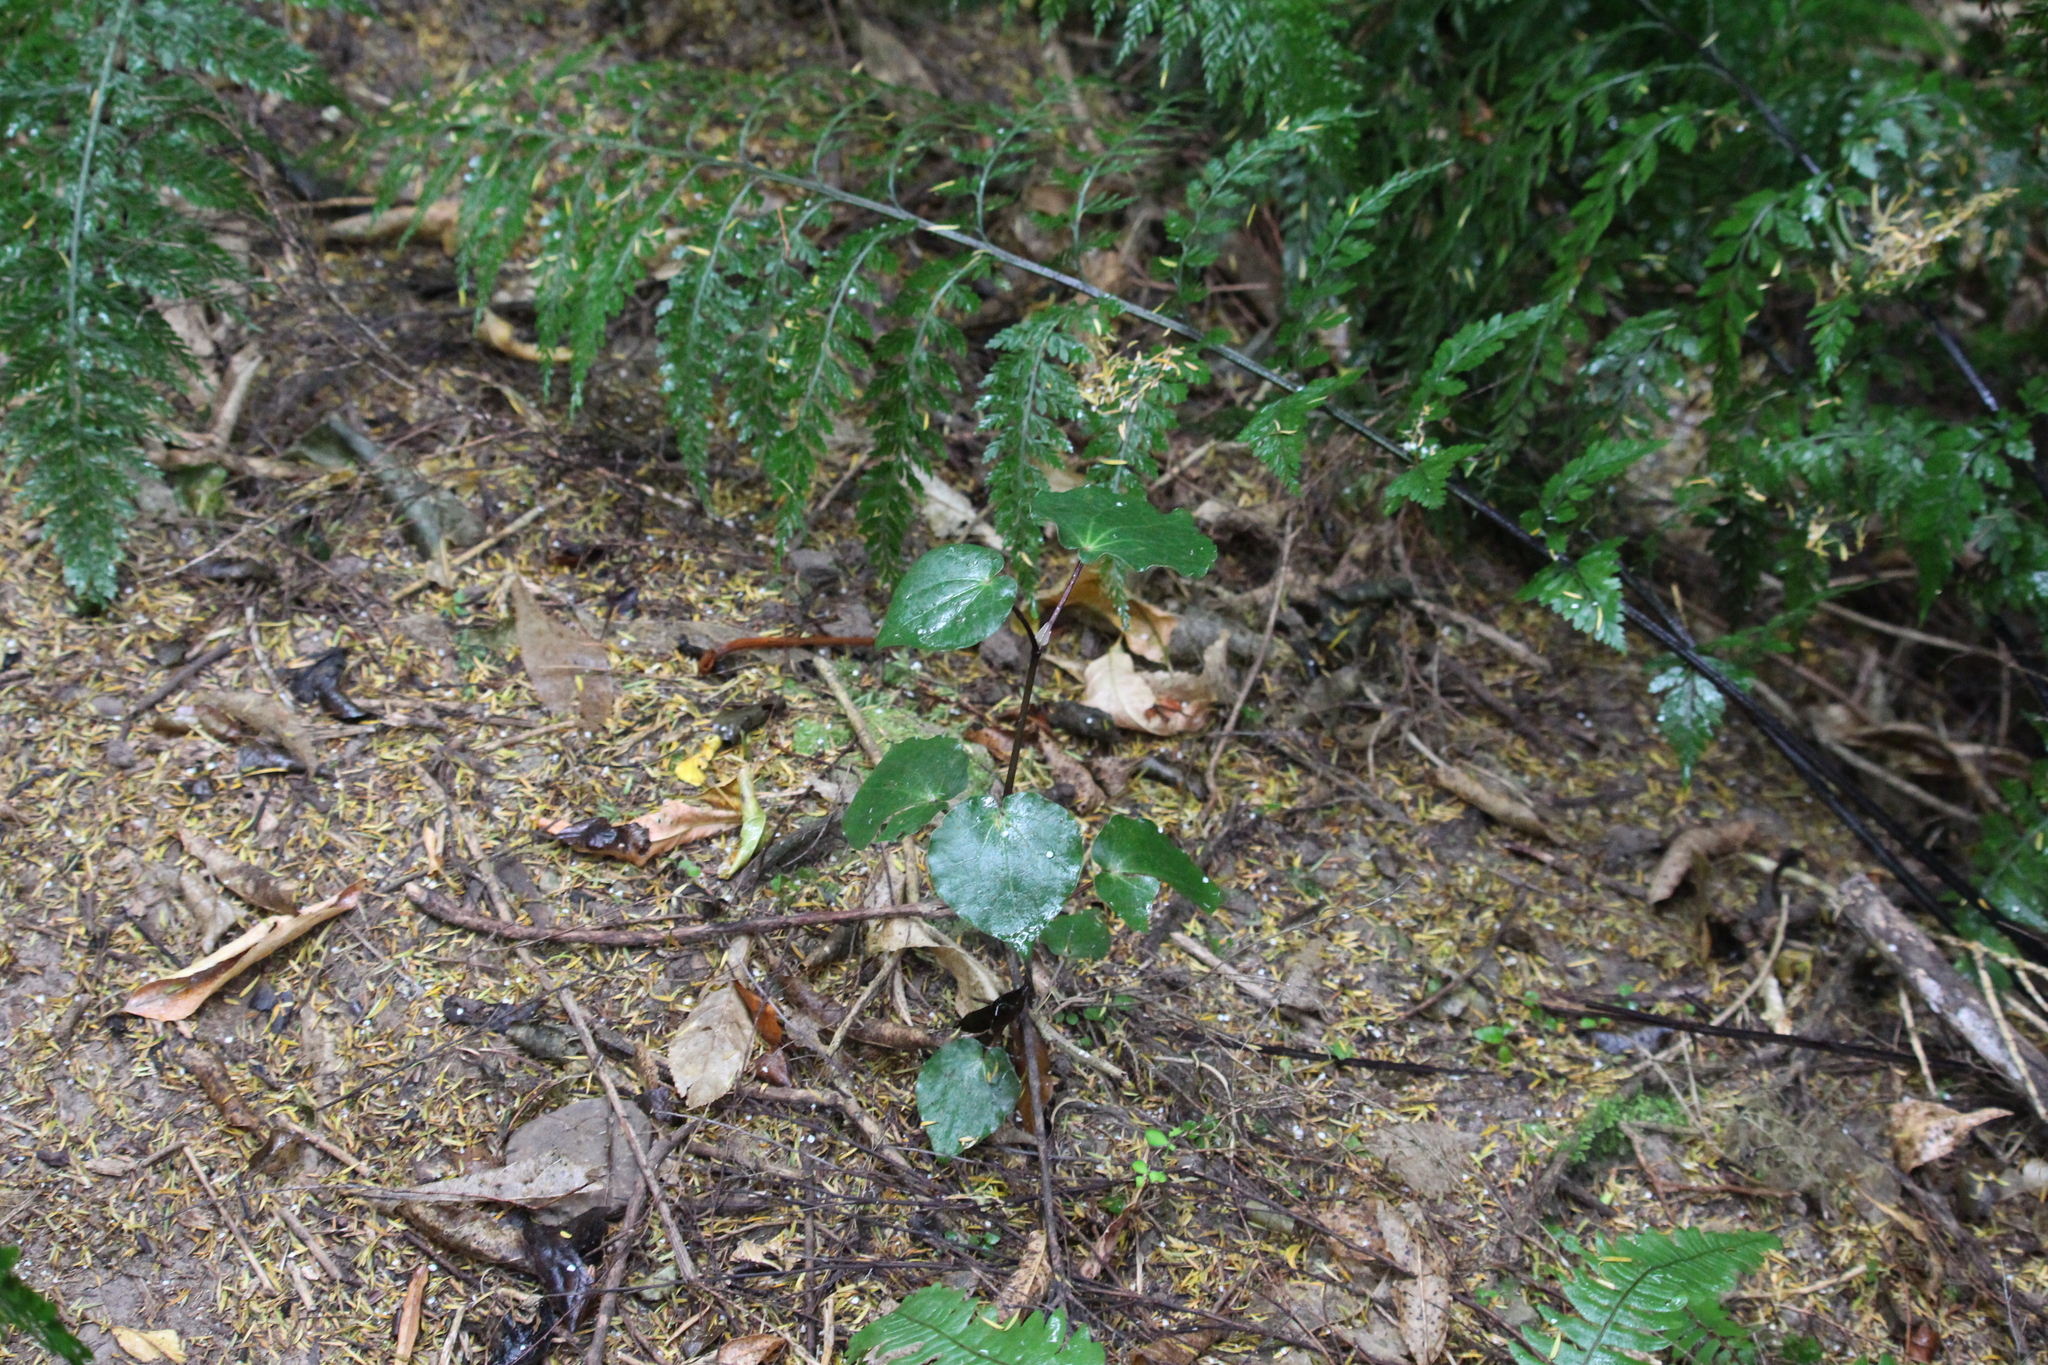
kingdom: Plantae
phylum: Tracheophyta
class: Magnoliopsida
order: Piperales
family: Piperaceae
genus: Macropiper
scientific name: Macropiper excelsum
